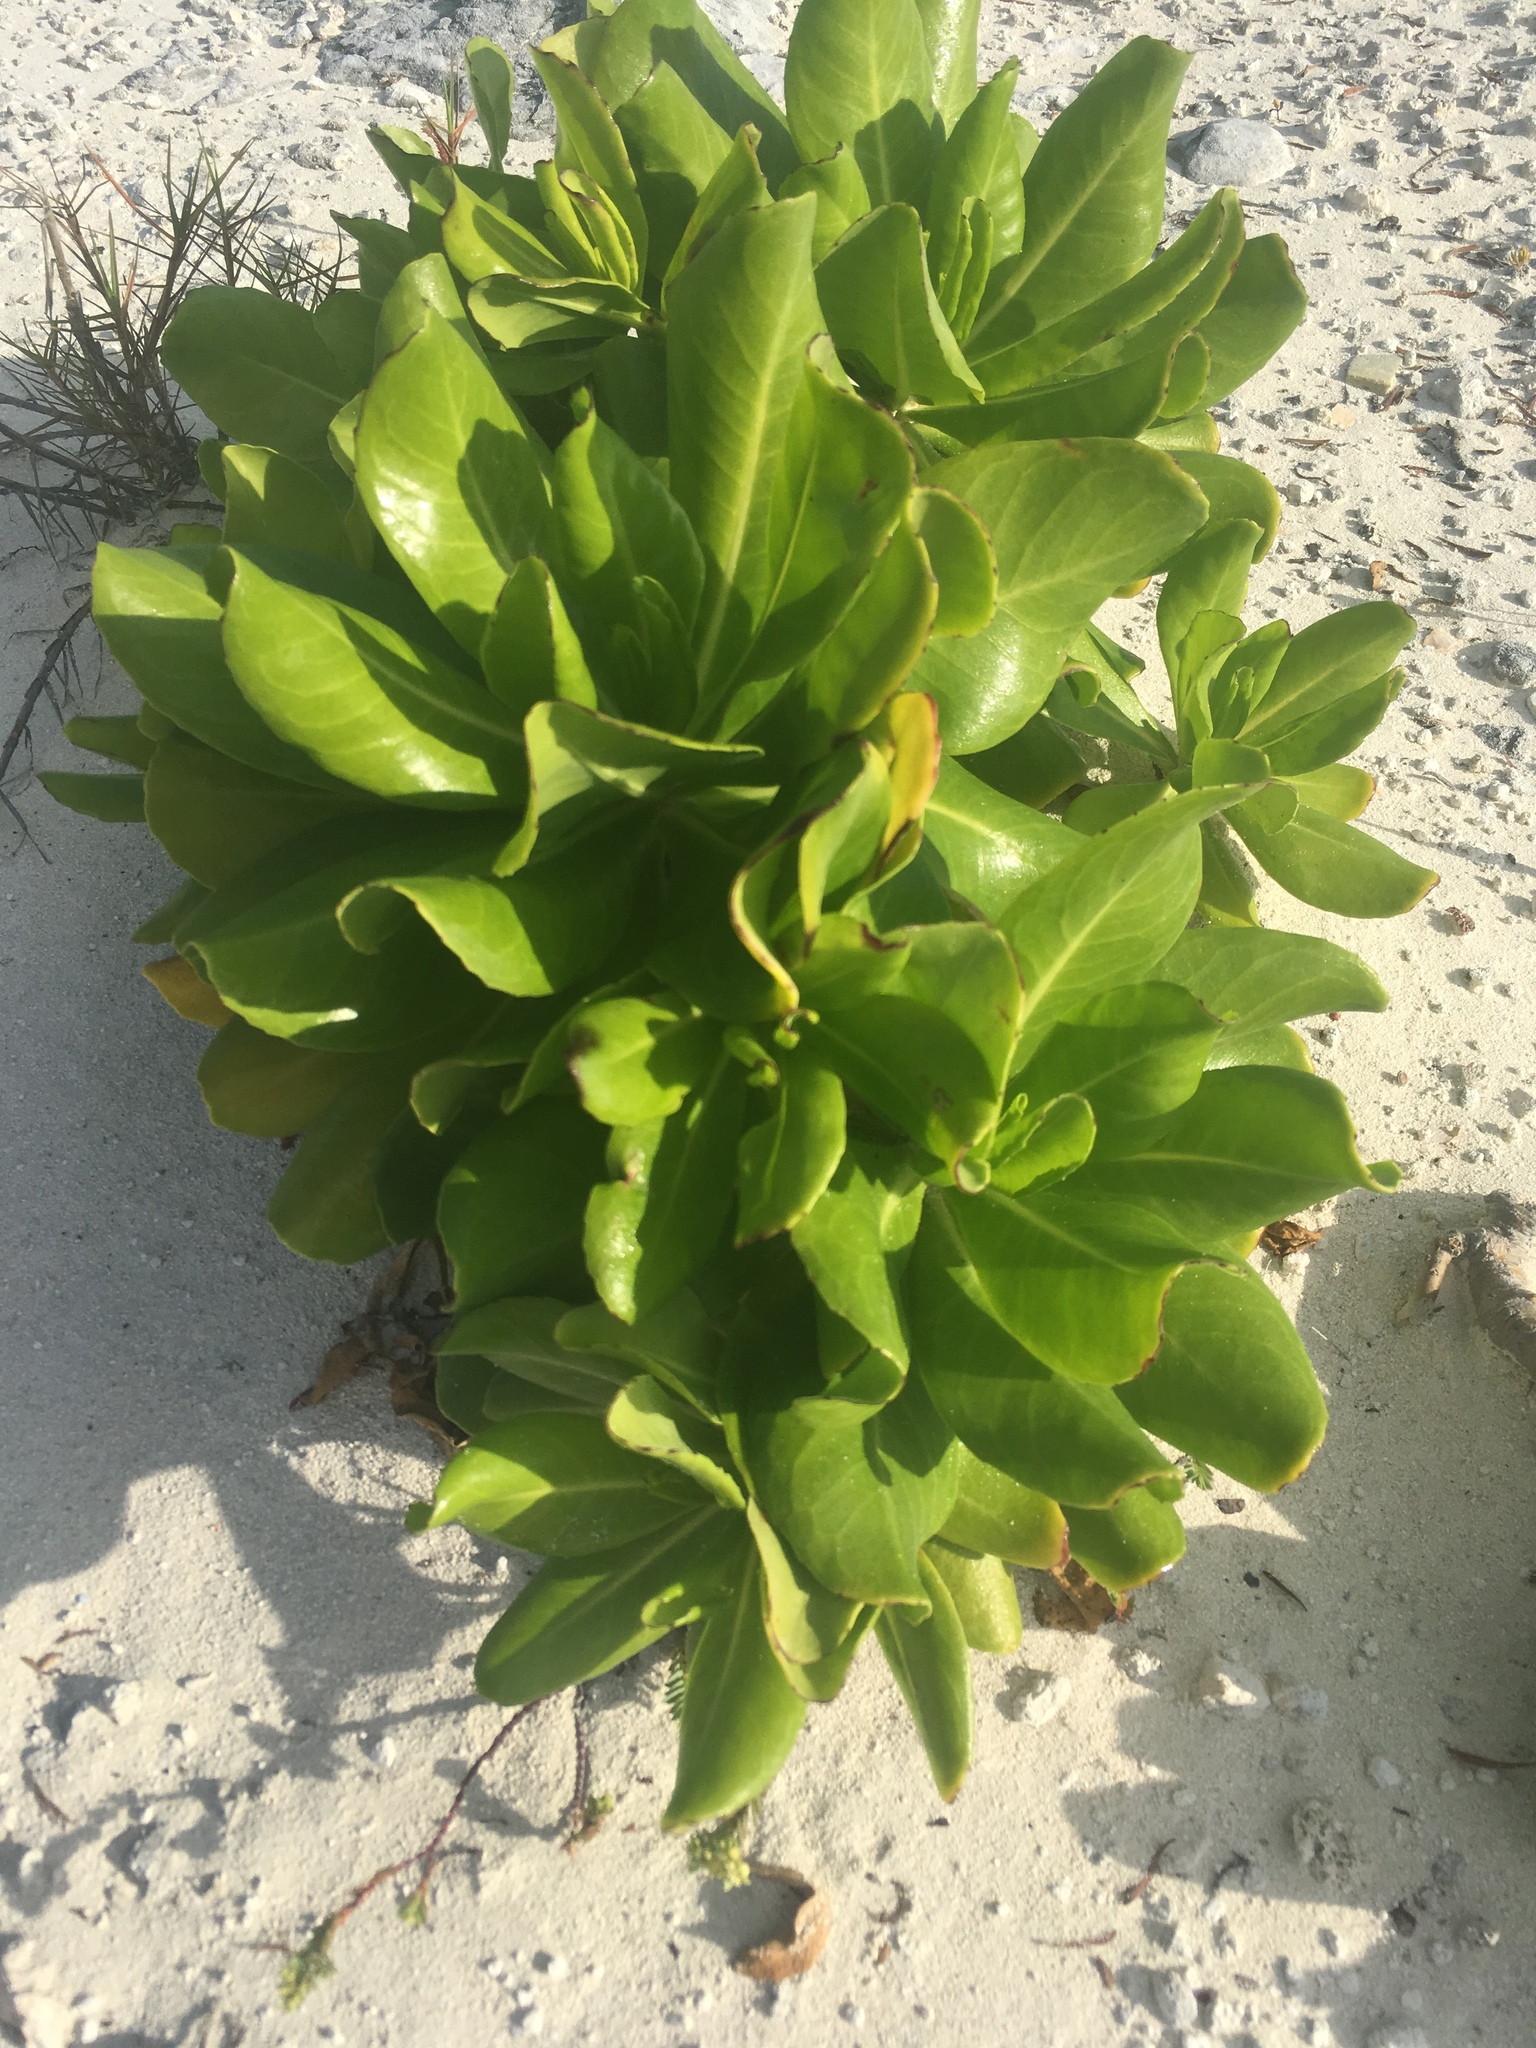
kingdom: Plantae
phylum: Tracheophyta
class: Magnoliopsida
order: Asterales
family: Goodeniaceae
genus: Scaevola
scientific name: Scaevola taccada
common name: Sea lettucetree
